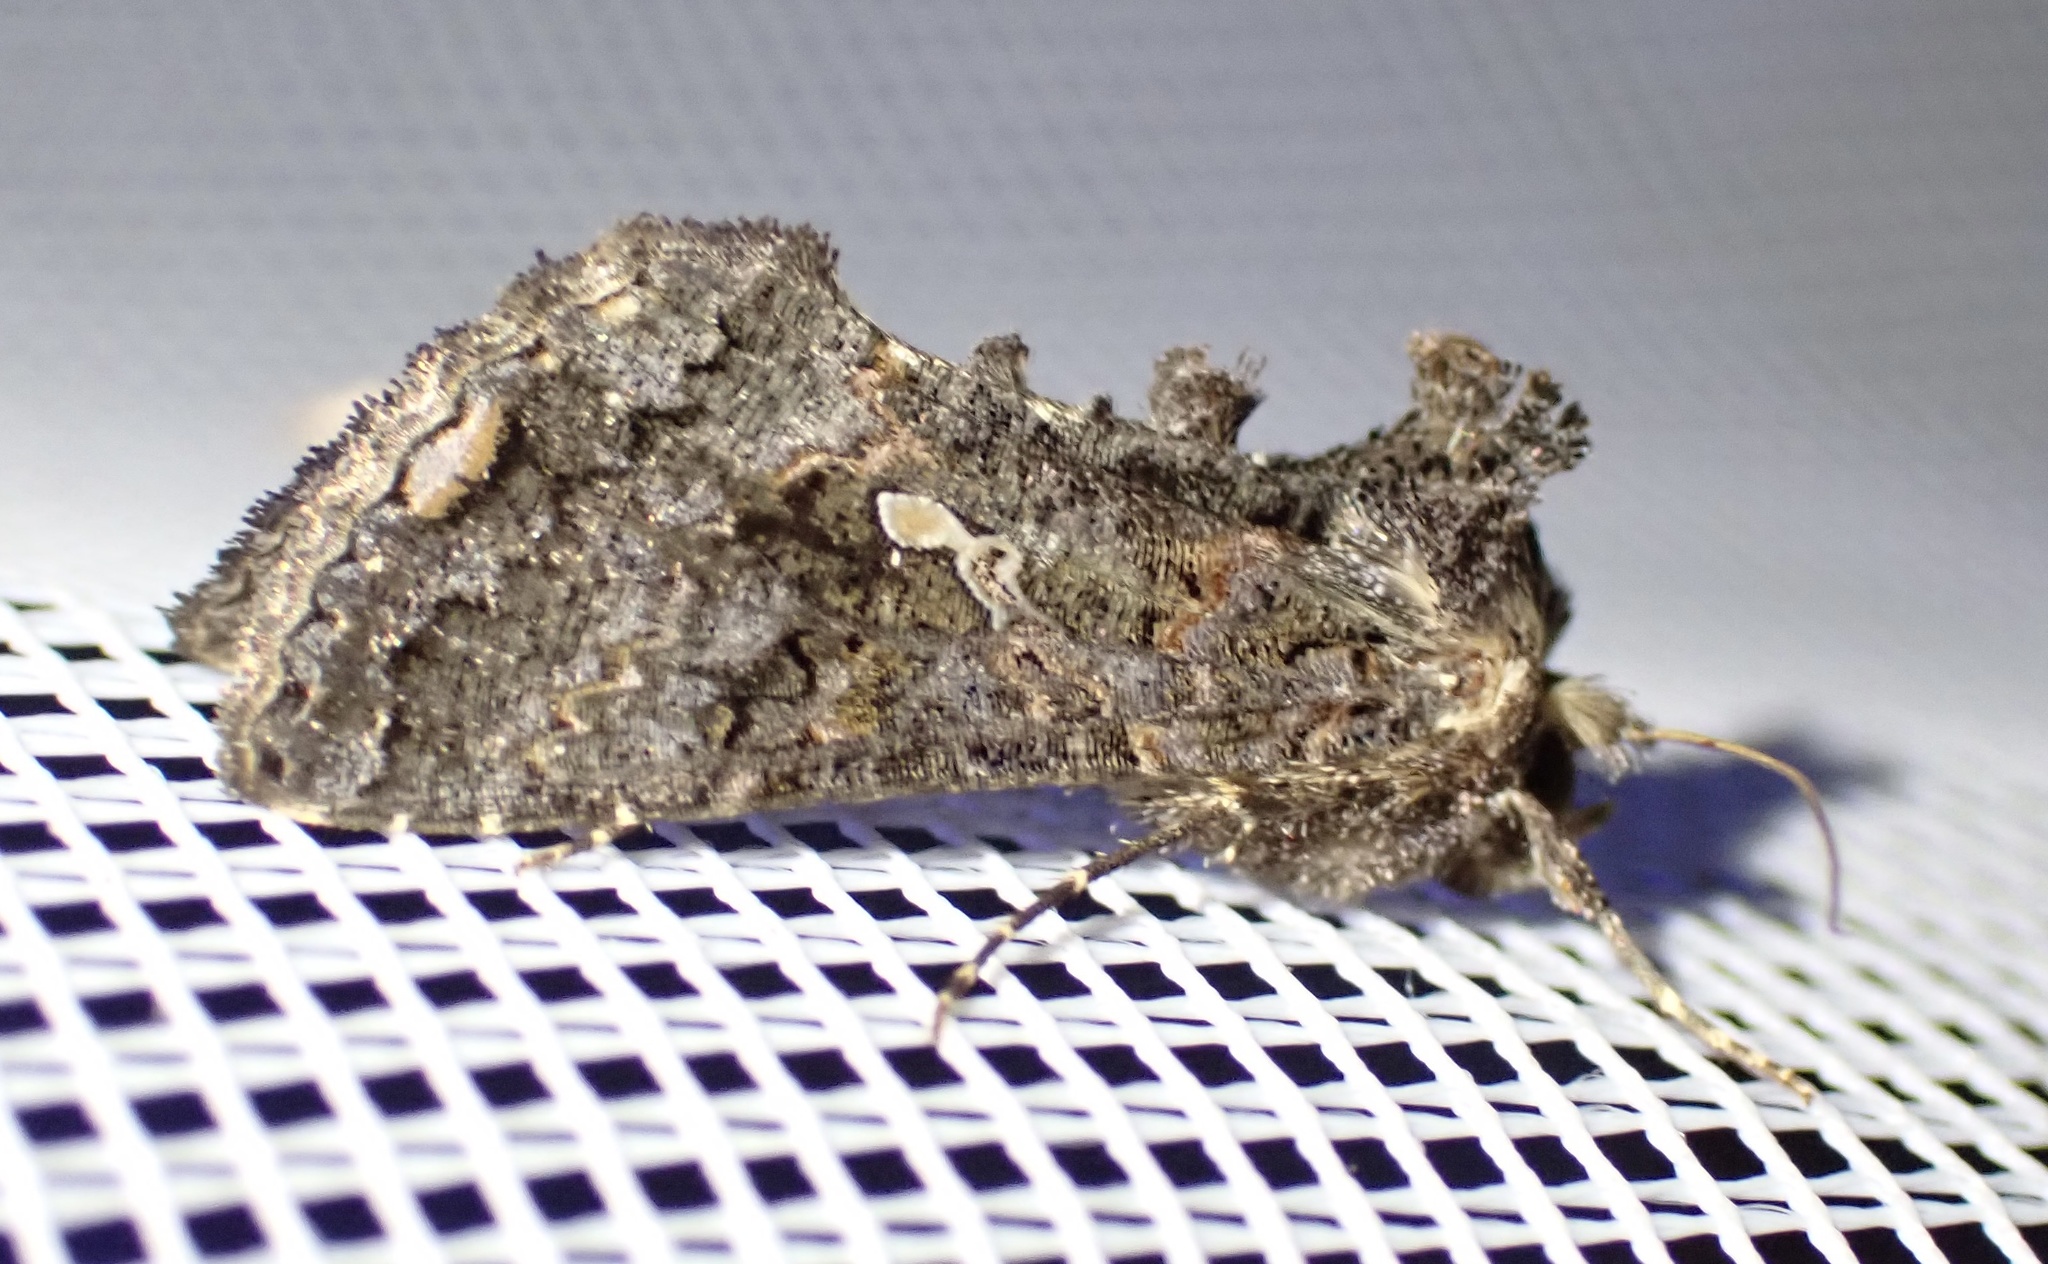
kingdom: Animalia
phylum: Arthropoda
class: Insecta
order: Lepidoptera
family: Noctuidae
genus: Ctenoplusia
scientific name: Ctenoplusia limbirena
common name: Scar bank gem
